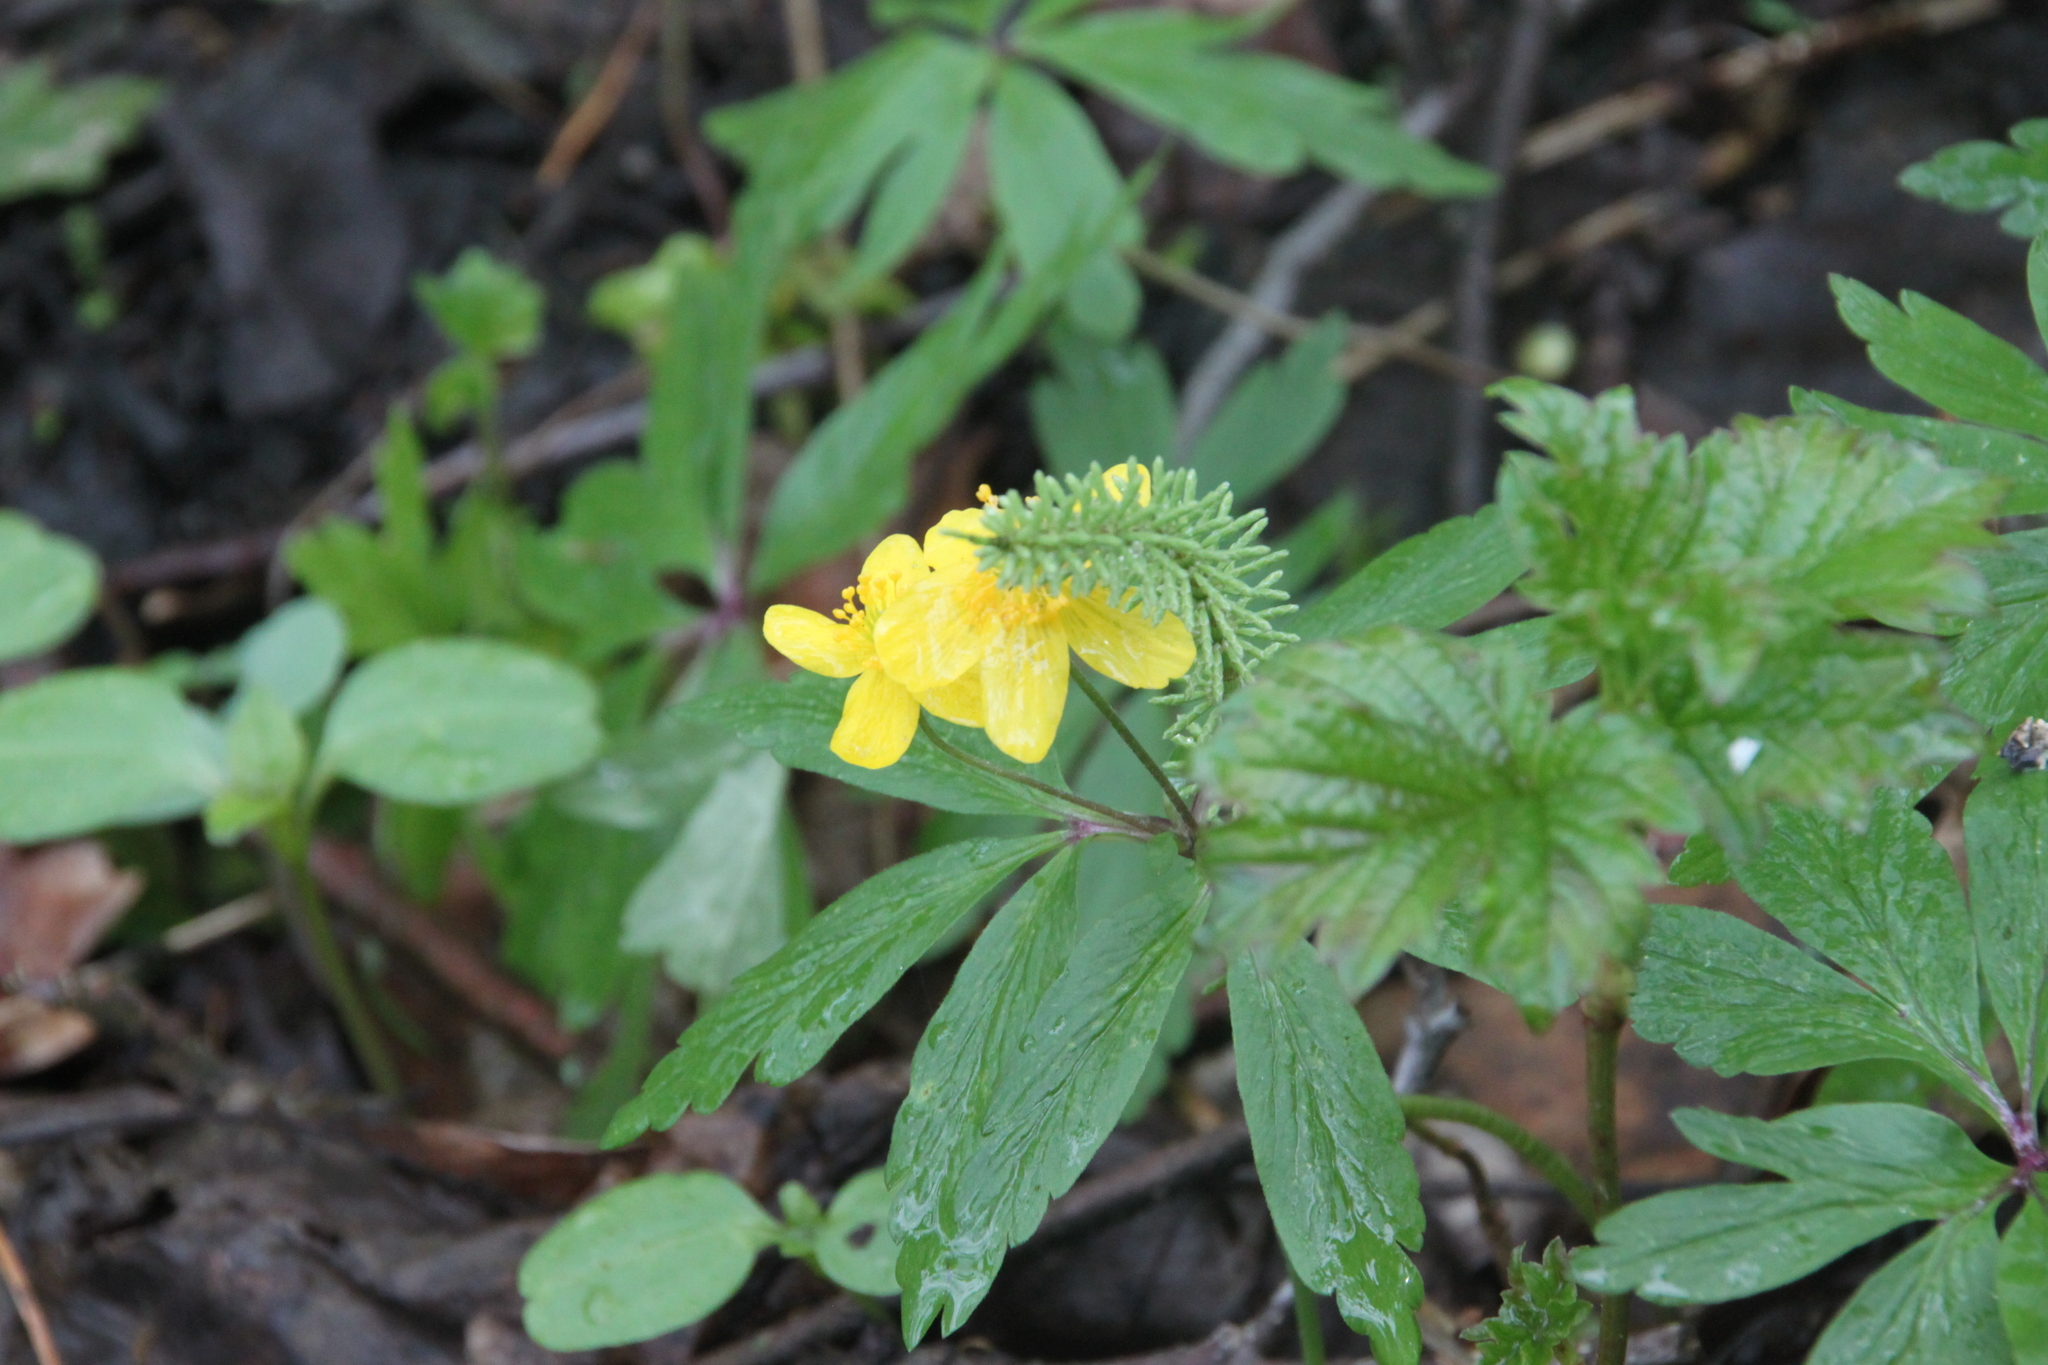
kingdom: Plantae
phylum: Tracheophyta
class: Magnoliopsida
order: Ranunculales
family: Ranunculaceae
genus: Anemone
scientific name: Anemone ranunculoides
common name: Yellow anemone
